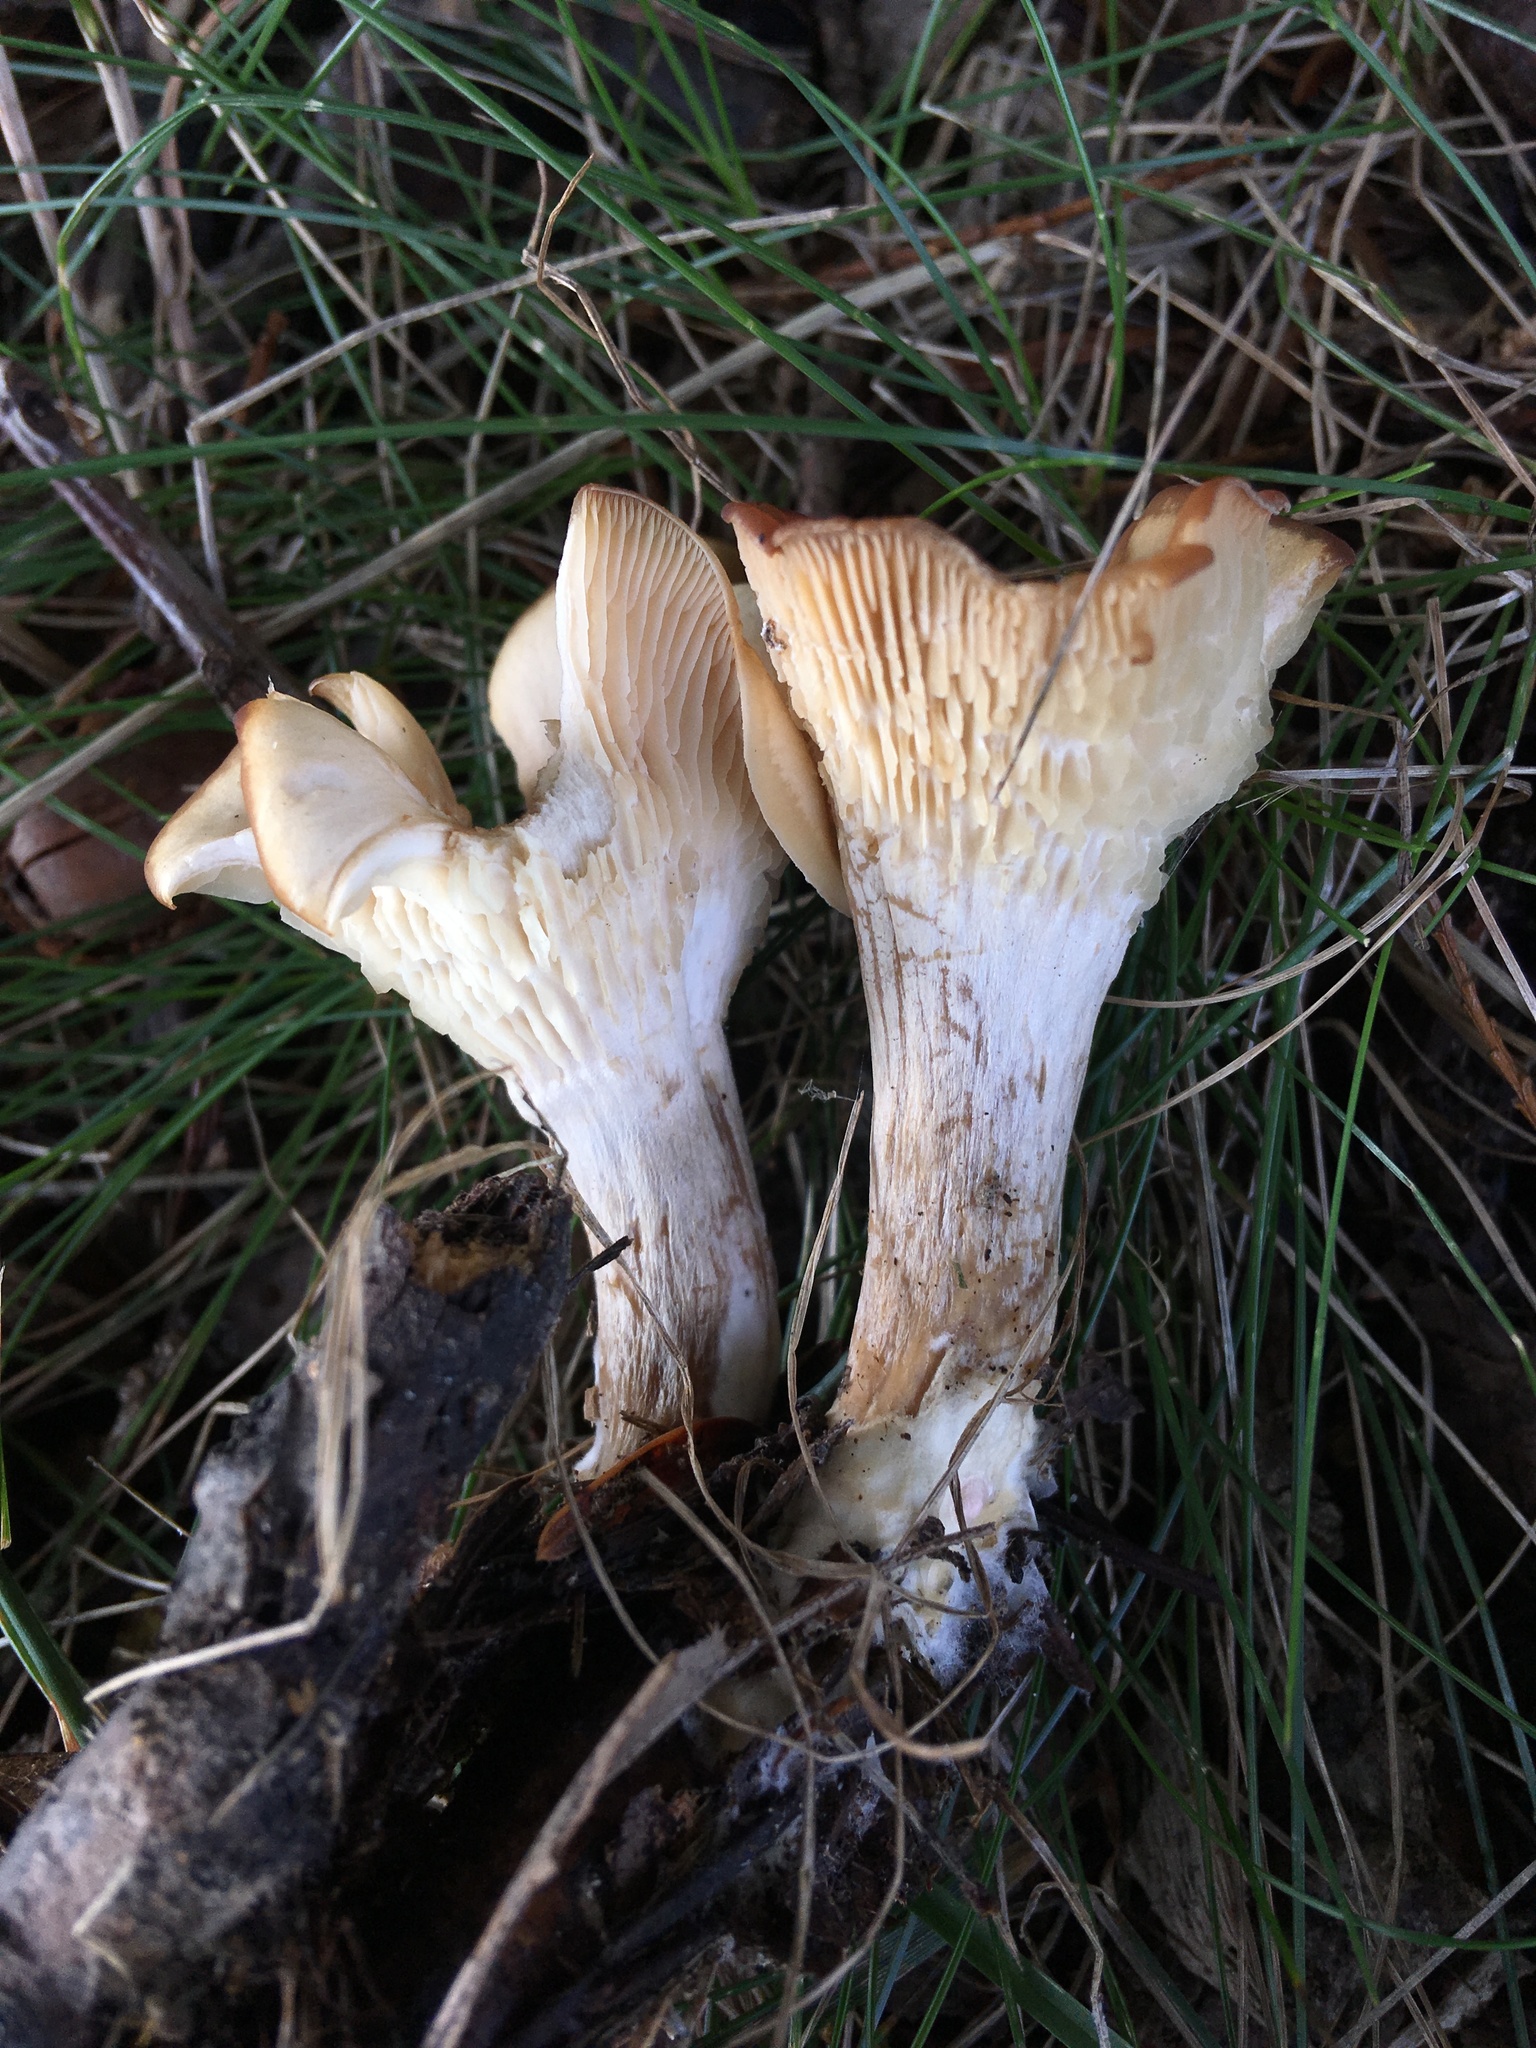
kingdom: Fungi
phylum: Basidiomycota
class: Agaricomycetes
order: Agaricales
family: Pleurotaceae
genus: Hohenbuehelia
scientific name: Hohenbuehelia petaloides
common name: Shoehorn oyster
